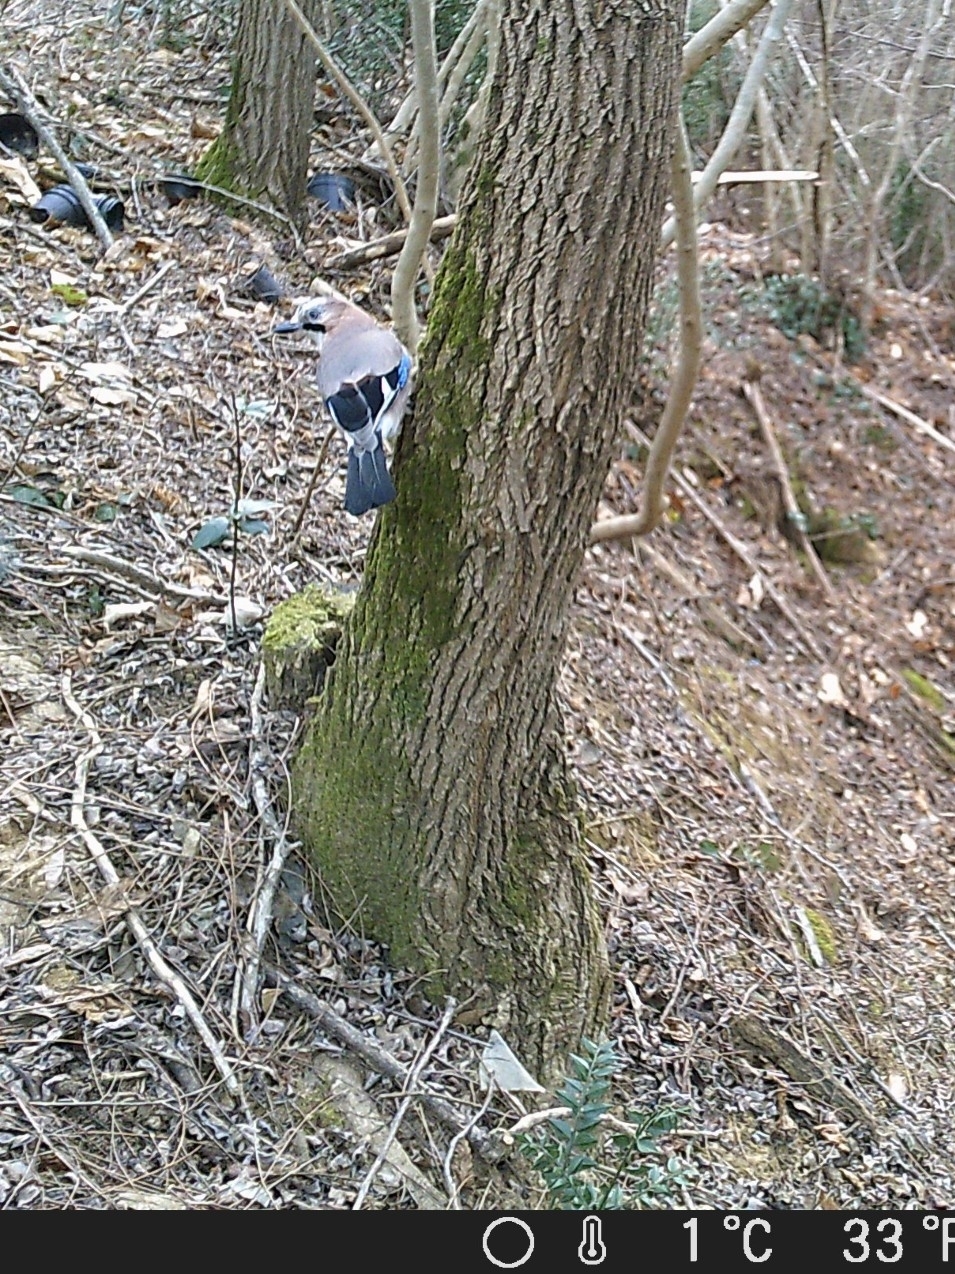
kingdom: Animalia
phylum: Chordata
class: Aves
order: Passeriformes
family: Corvidae
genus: Garrulus
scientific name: Garrulus glandarius
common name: Eurasian jay
